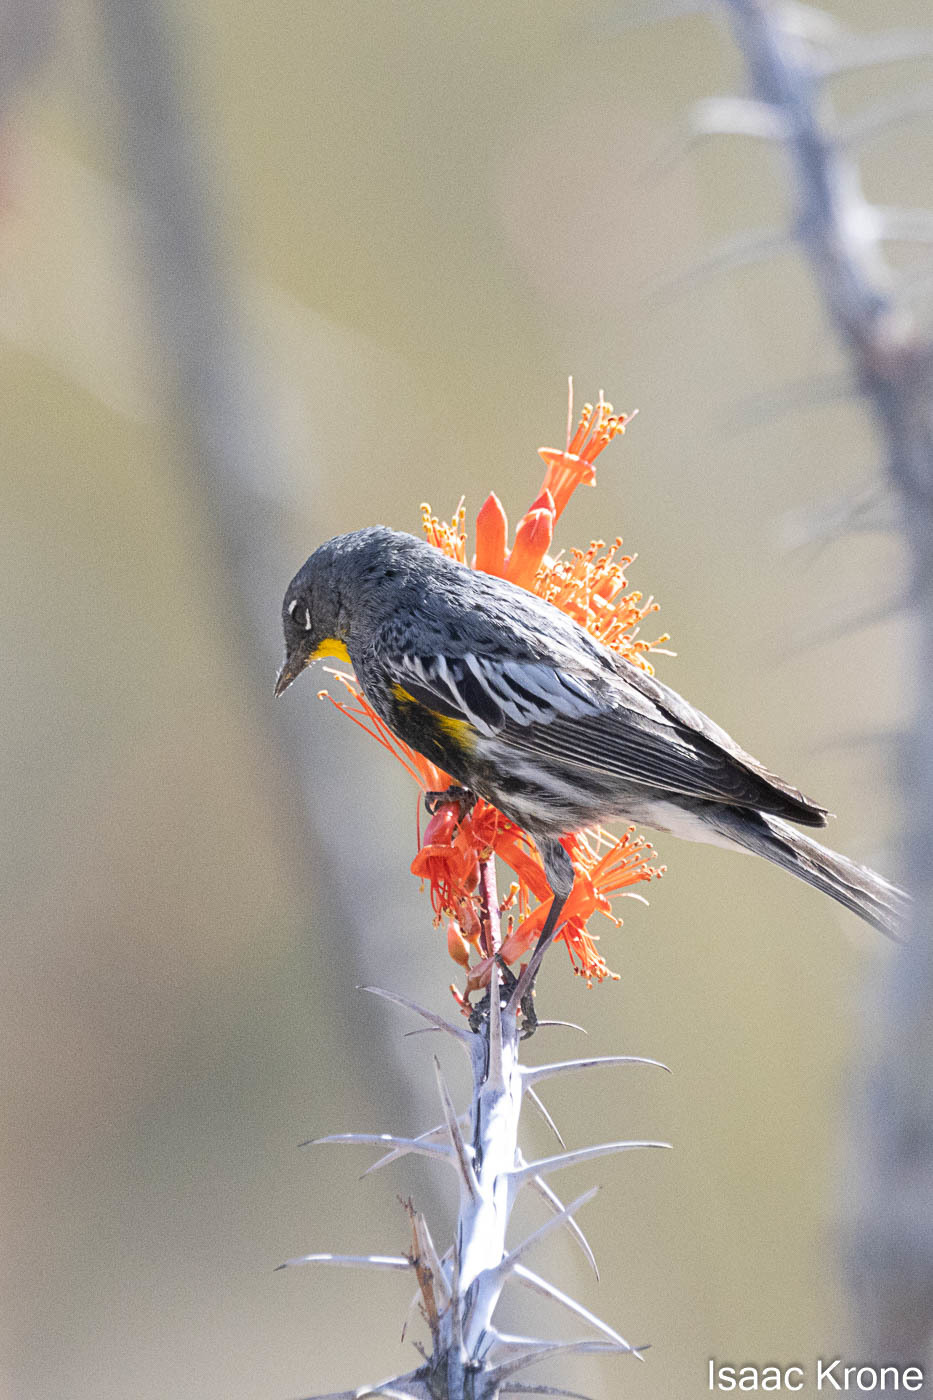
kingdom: Animalia
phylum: Chordata
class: Aves
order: Passeriformes
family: Parulidae
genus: Setophaga
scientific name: Setophaga coronata
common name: Myrtle warbler
